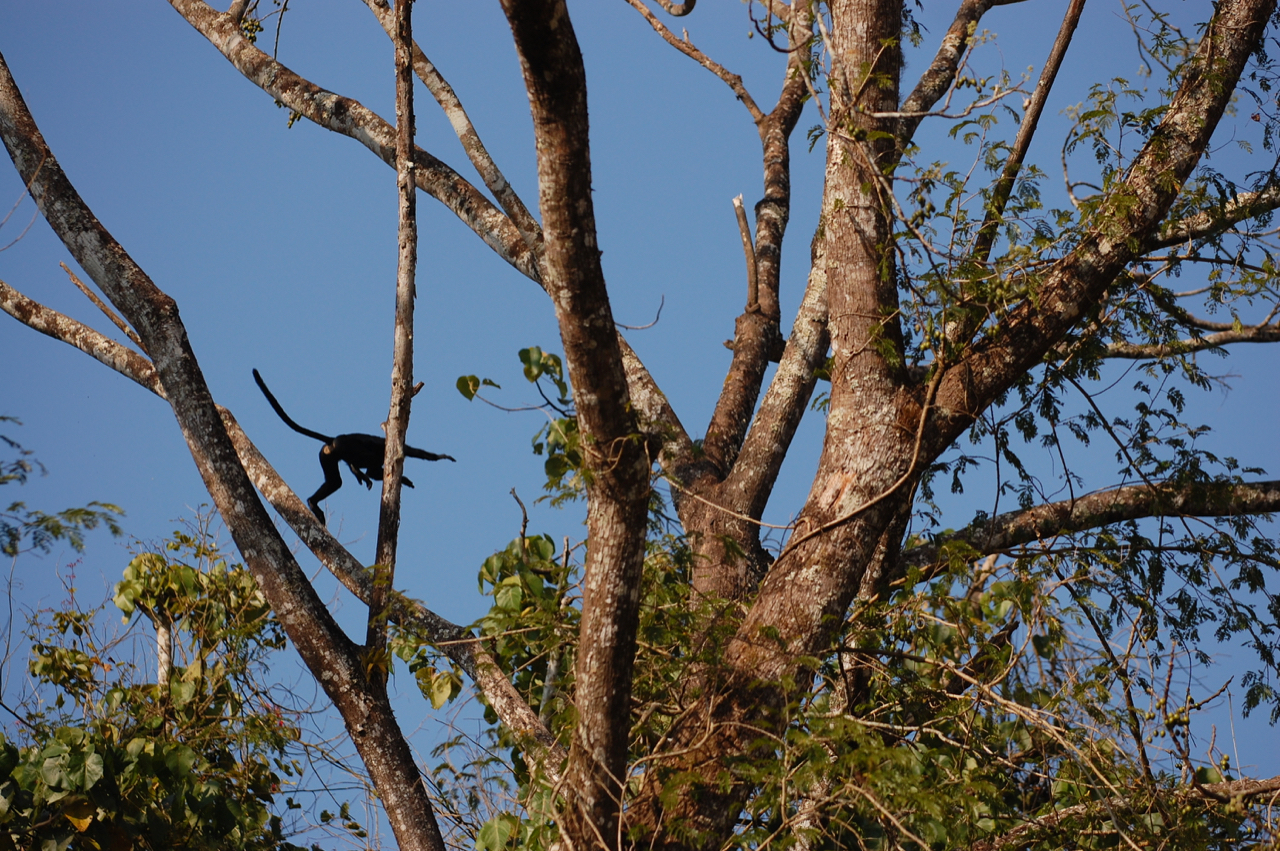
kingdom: Animalia
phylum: Chordata
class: Mammalia
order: Primates
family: Cercopithecidae
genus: Semnopithecus
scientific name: Semnopithecus johnii
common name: Nilgiri langur
